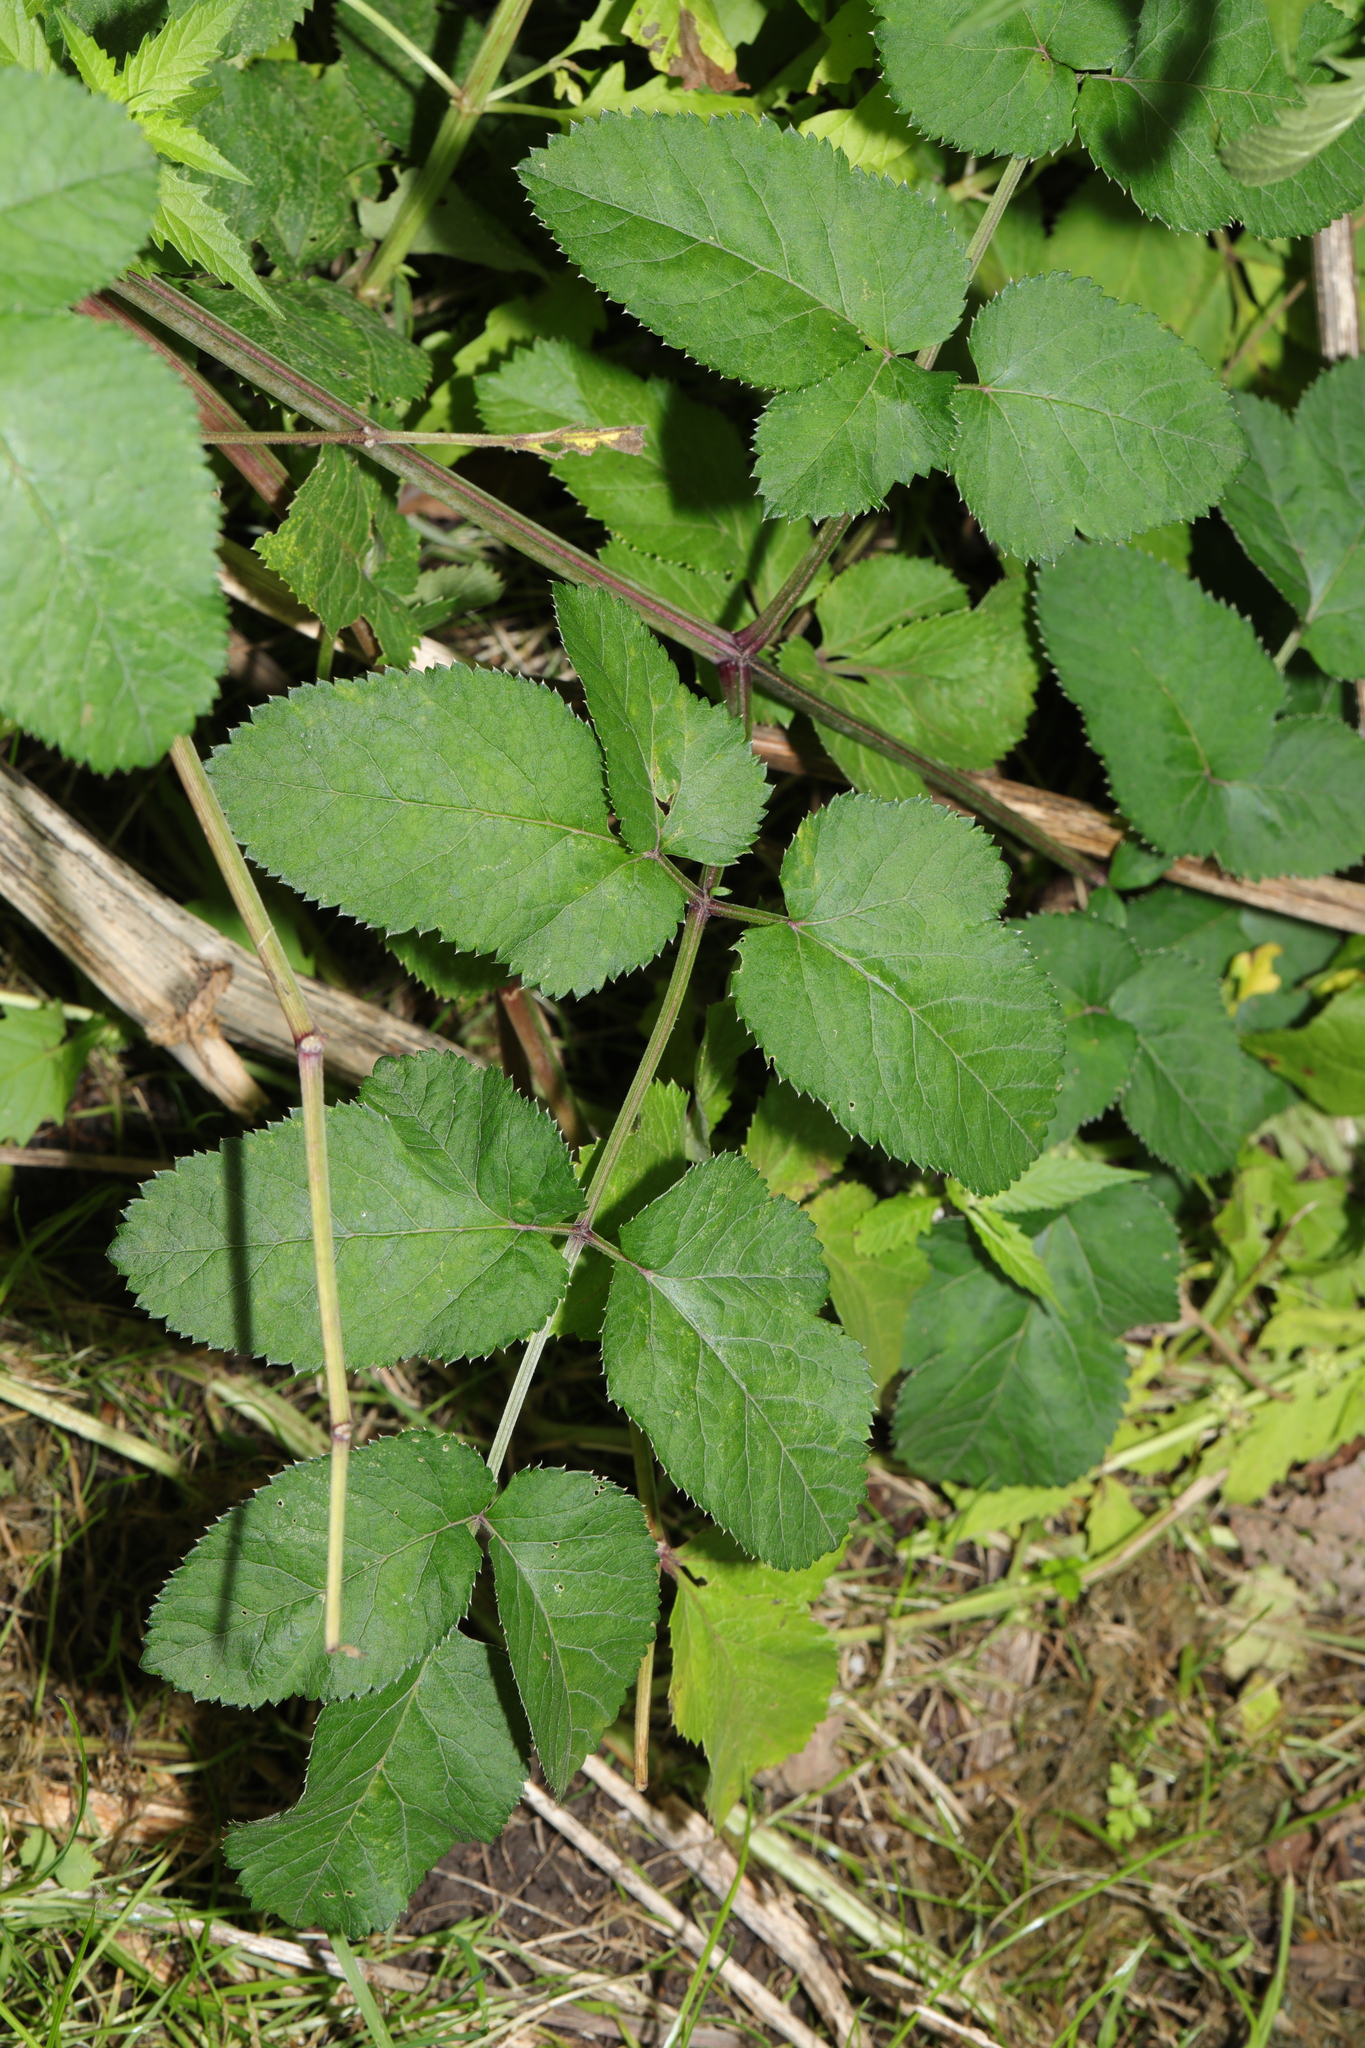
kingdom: Plantae
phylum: Tracheophyta
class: Magnoliopsida
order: Apiales
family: Apiaceae
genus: Angelica
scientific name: Angelica sylvestris
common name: Wild angelica
